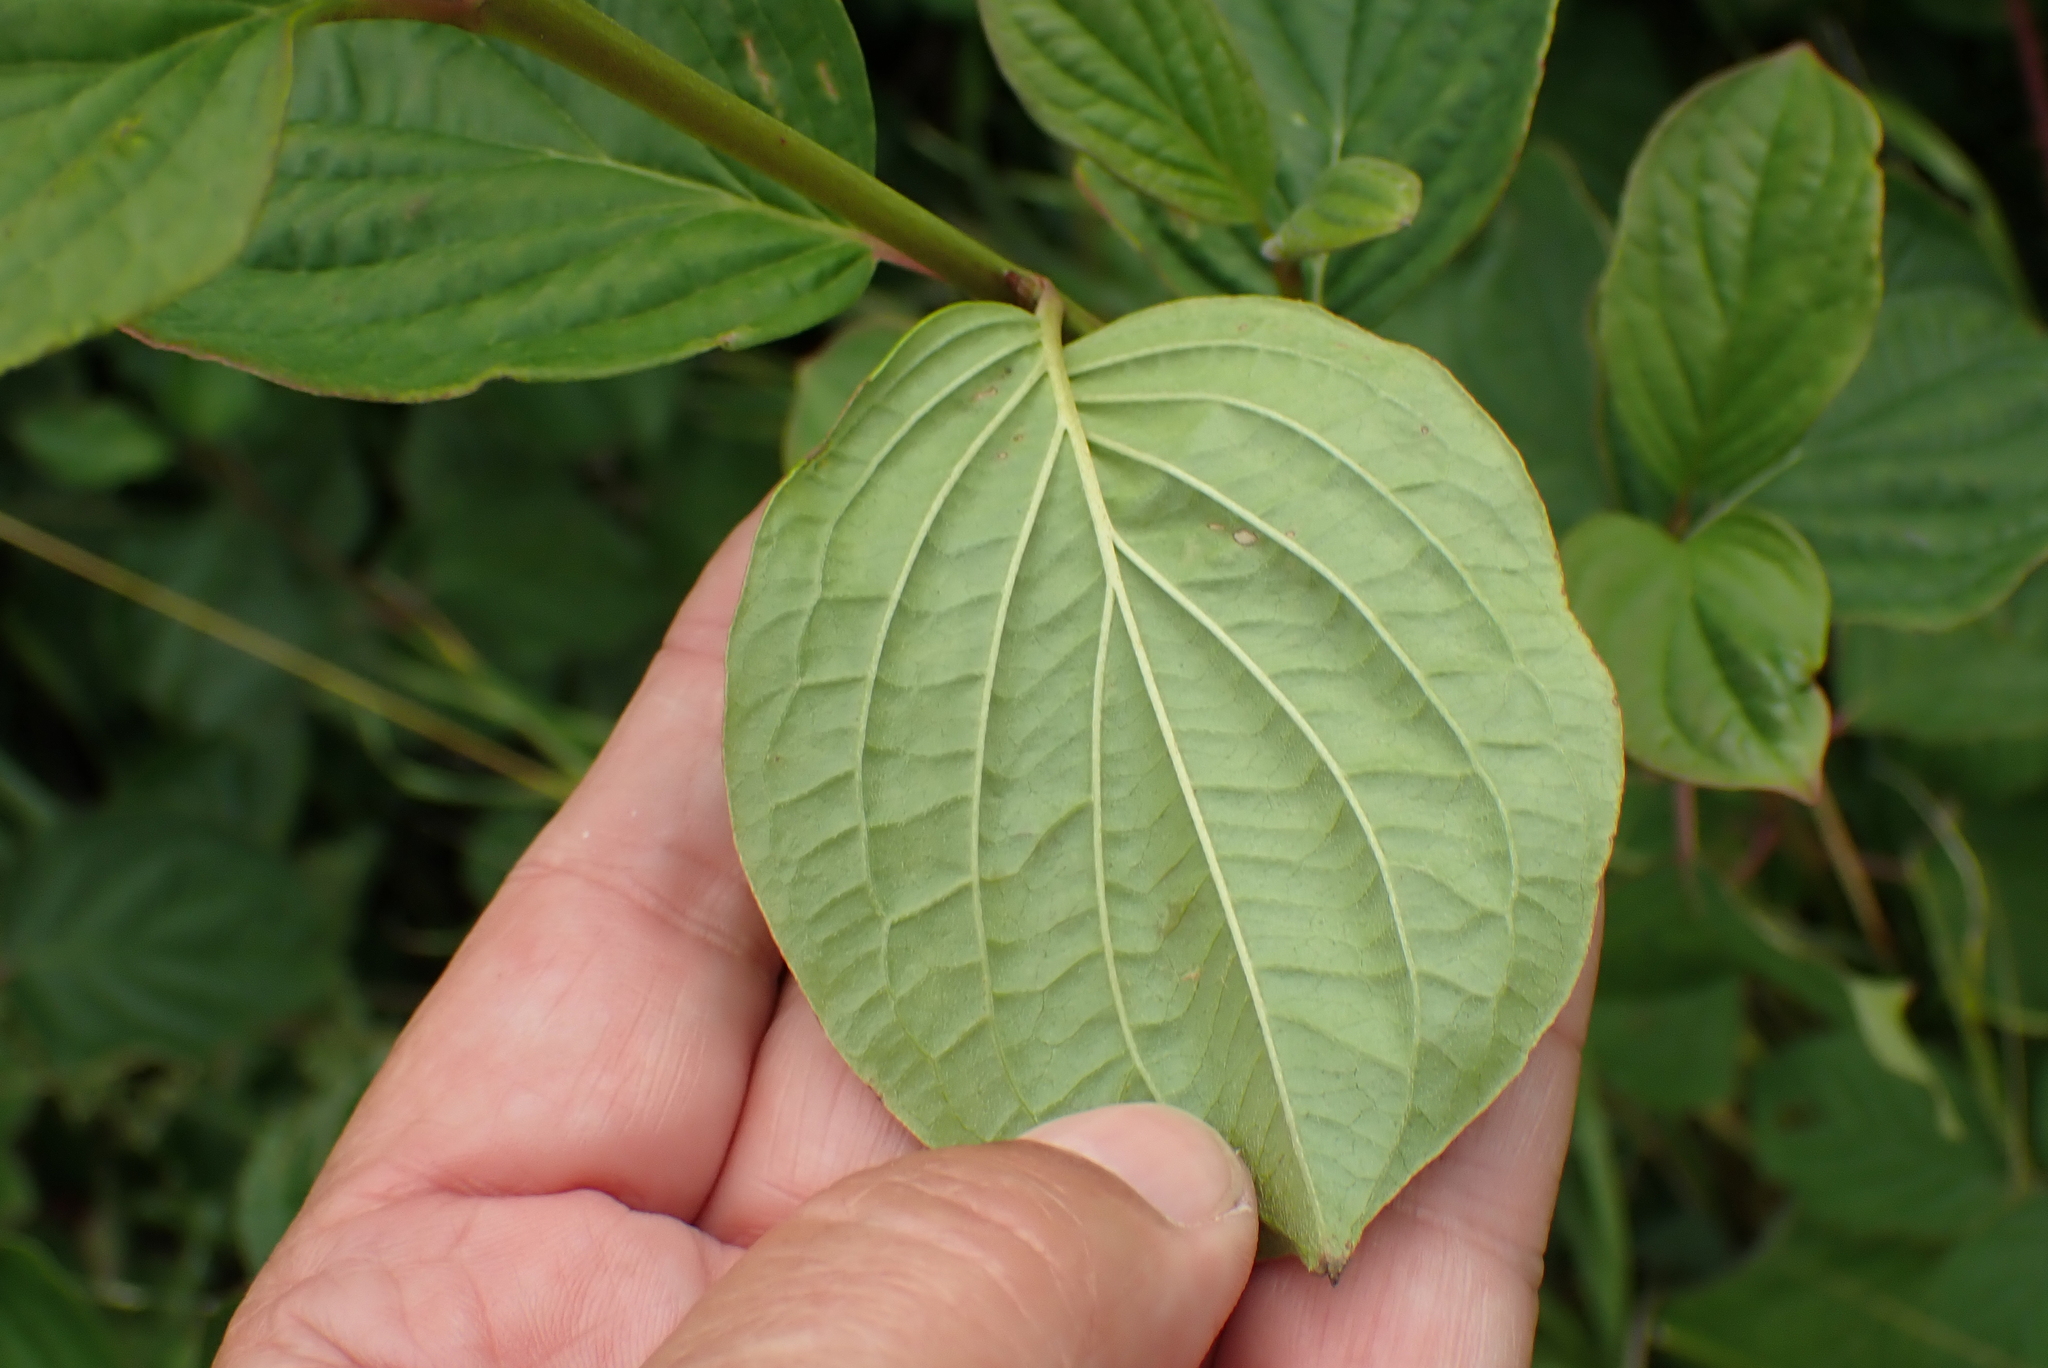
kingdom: Plantae
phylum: Tracheophyta
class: Magnoliopsida
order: Cornales
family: Cornaceae
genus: Cornus
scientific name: Cornus sanguinea
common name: Dogwood
